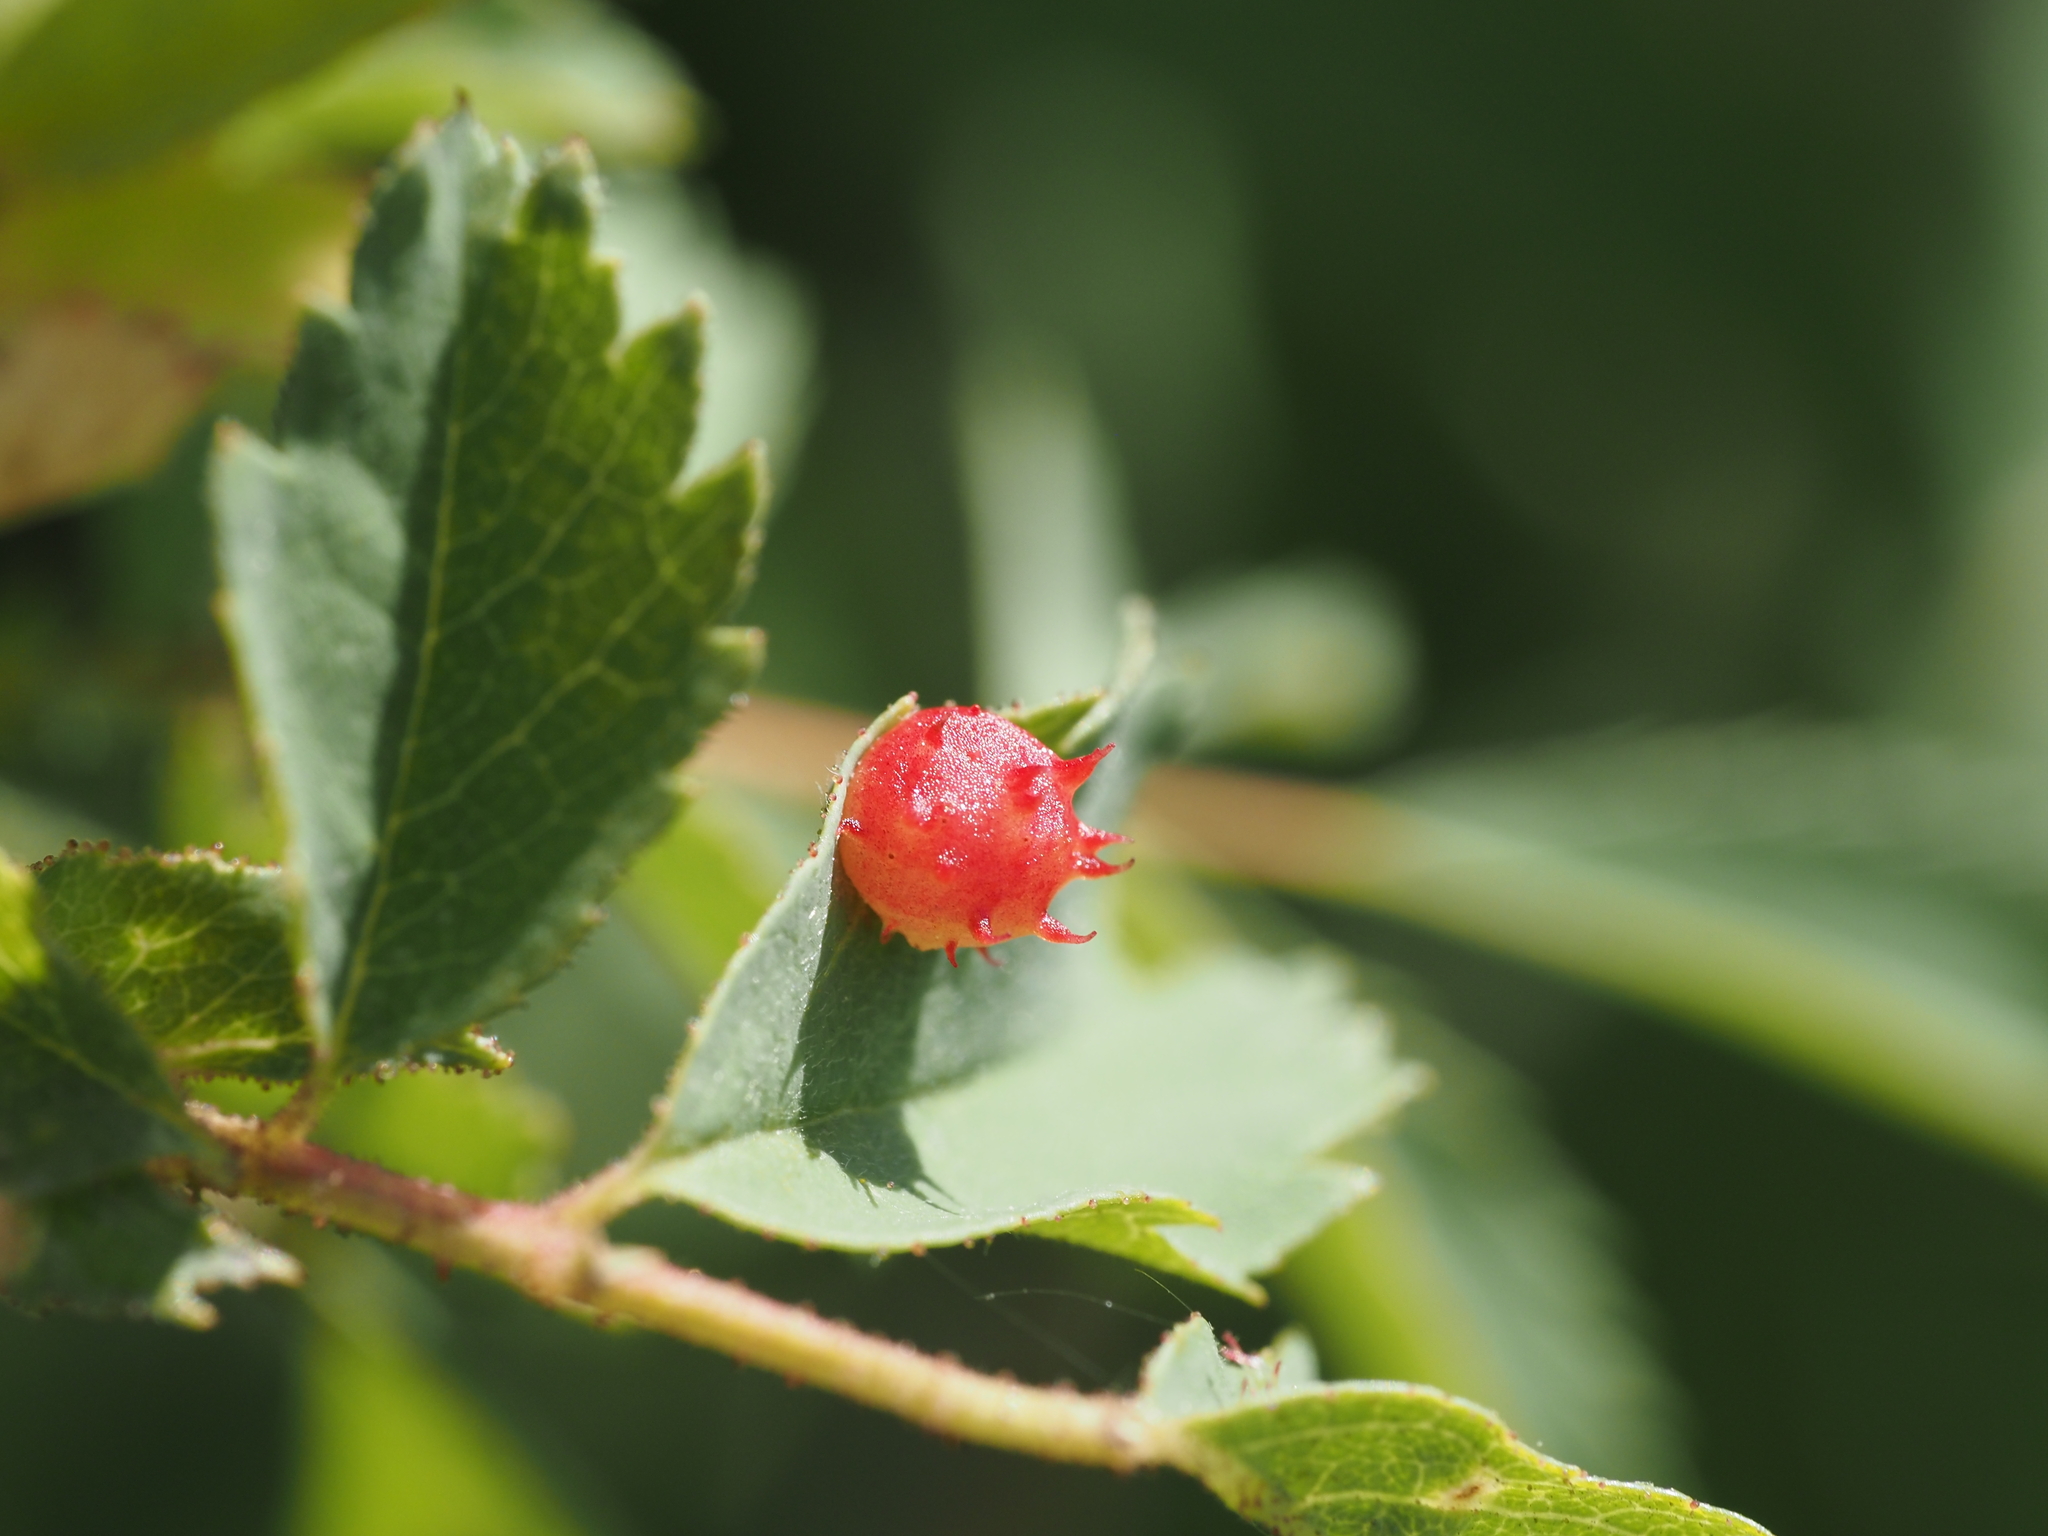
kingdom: Animalia
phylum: Arthropoda
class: Insecta
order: Hymenoptera
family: Cynipidae
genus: Diplolepis
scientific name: Diplolepis polita
